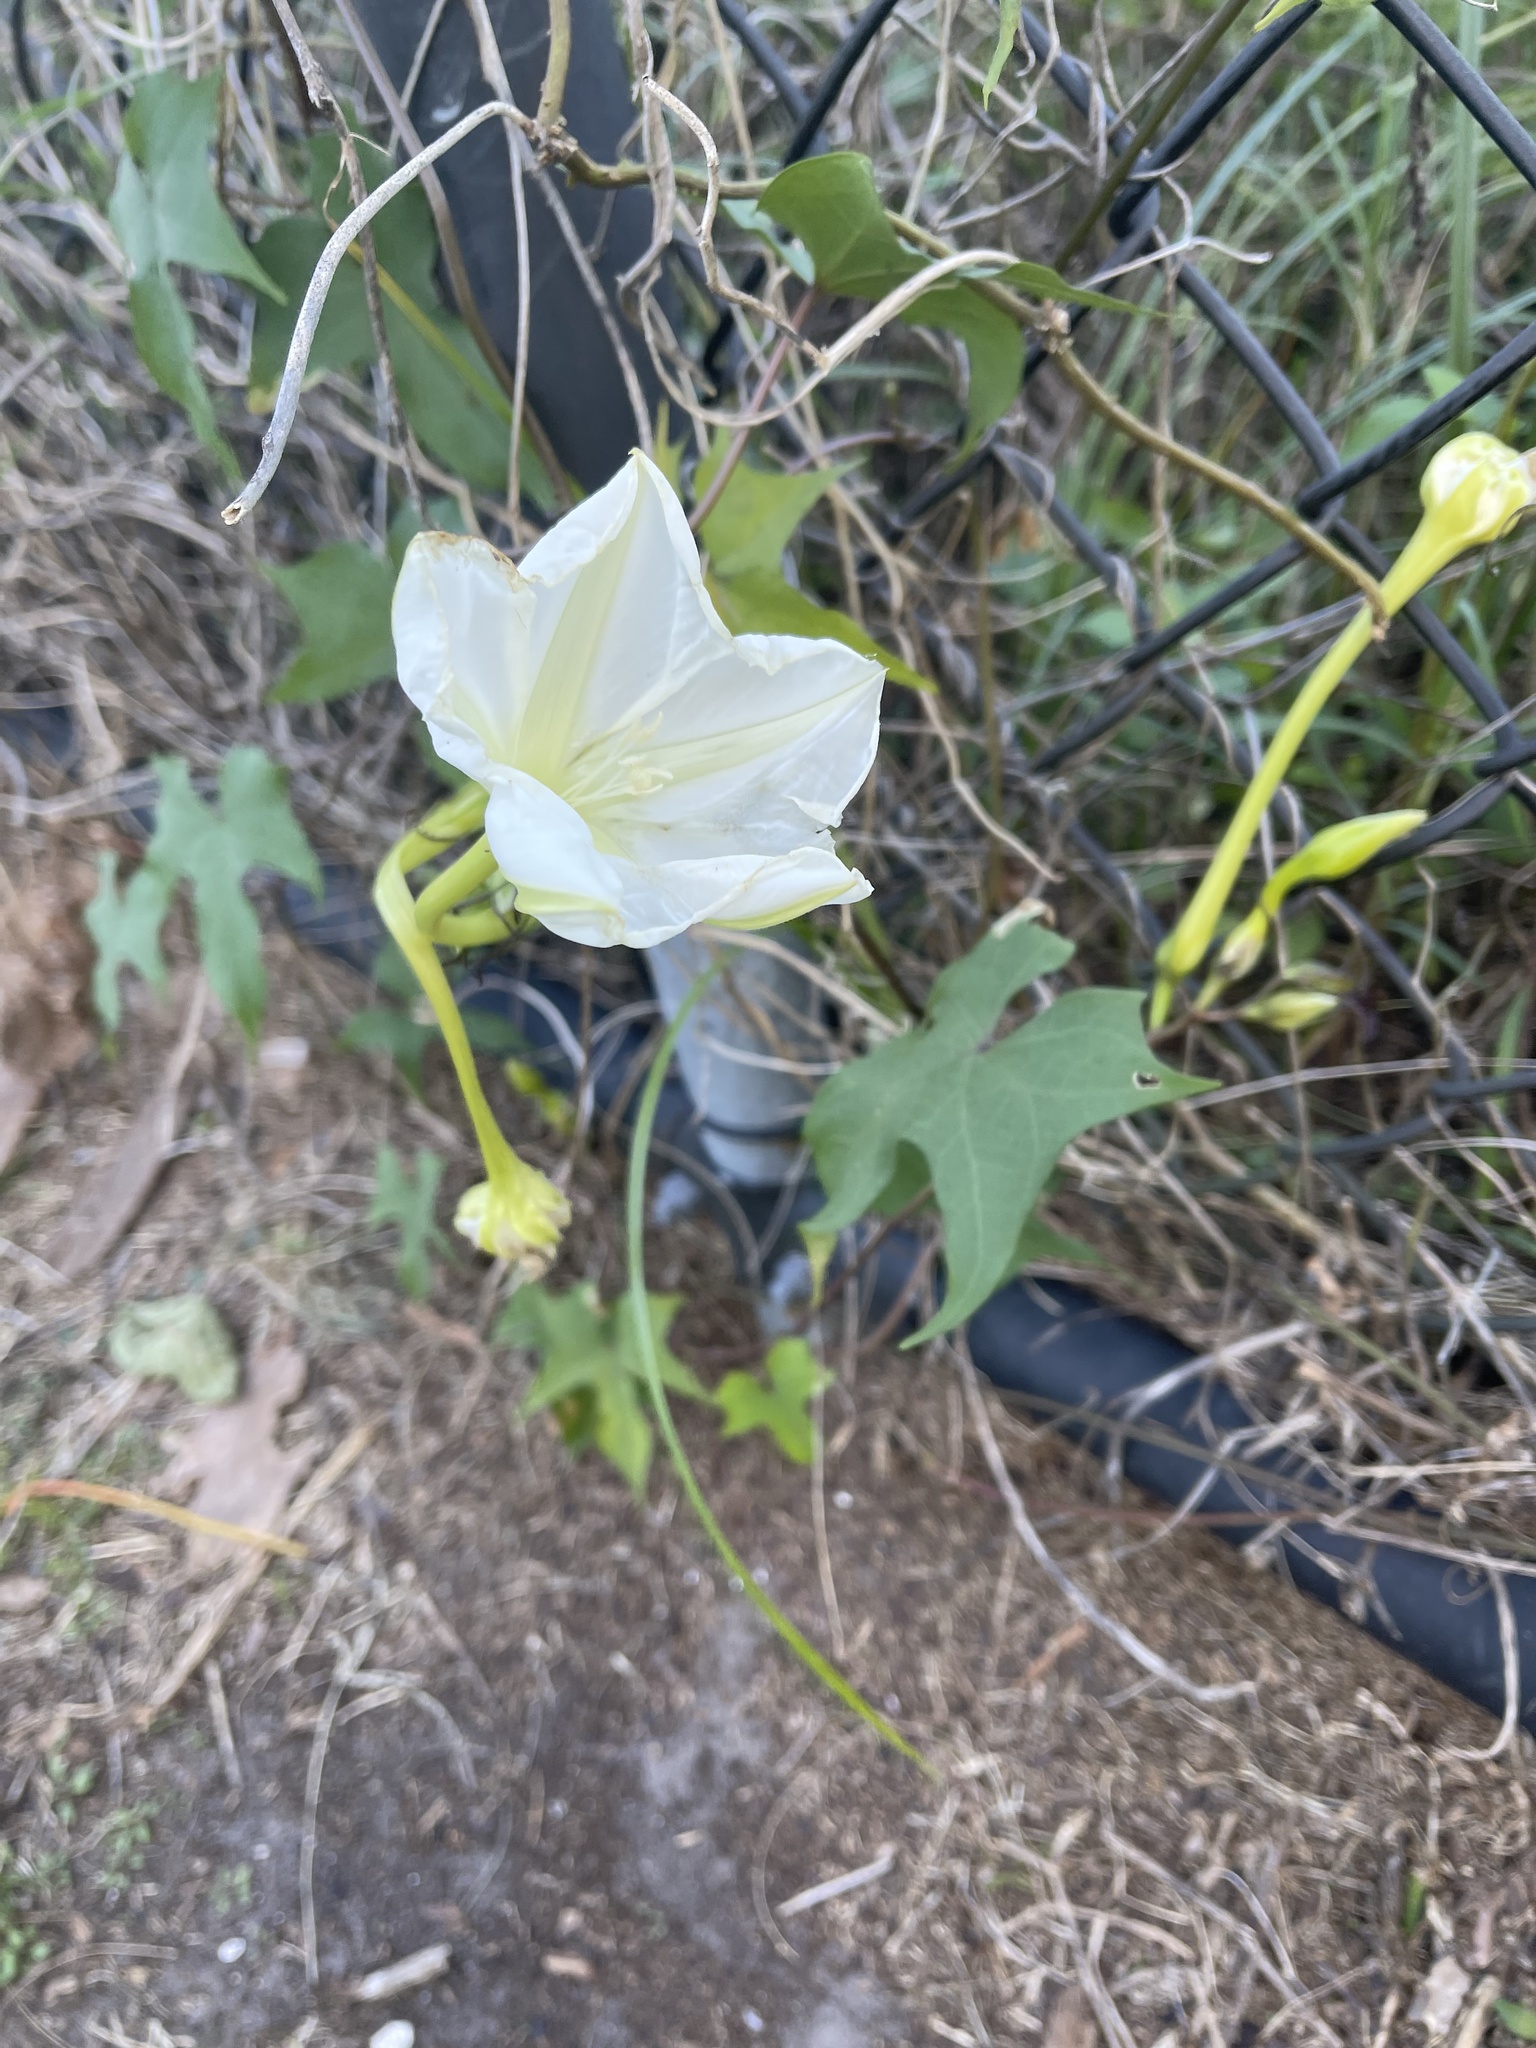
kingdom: Plantae
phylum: Tracheophyta
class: Magnoliopsida
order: Solanales
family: Convolvulaceae
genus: Ipomoea
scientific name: Ipomoea alba
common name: Moonflower
